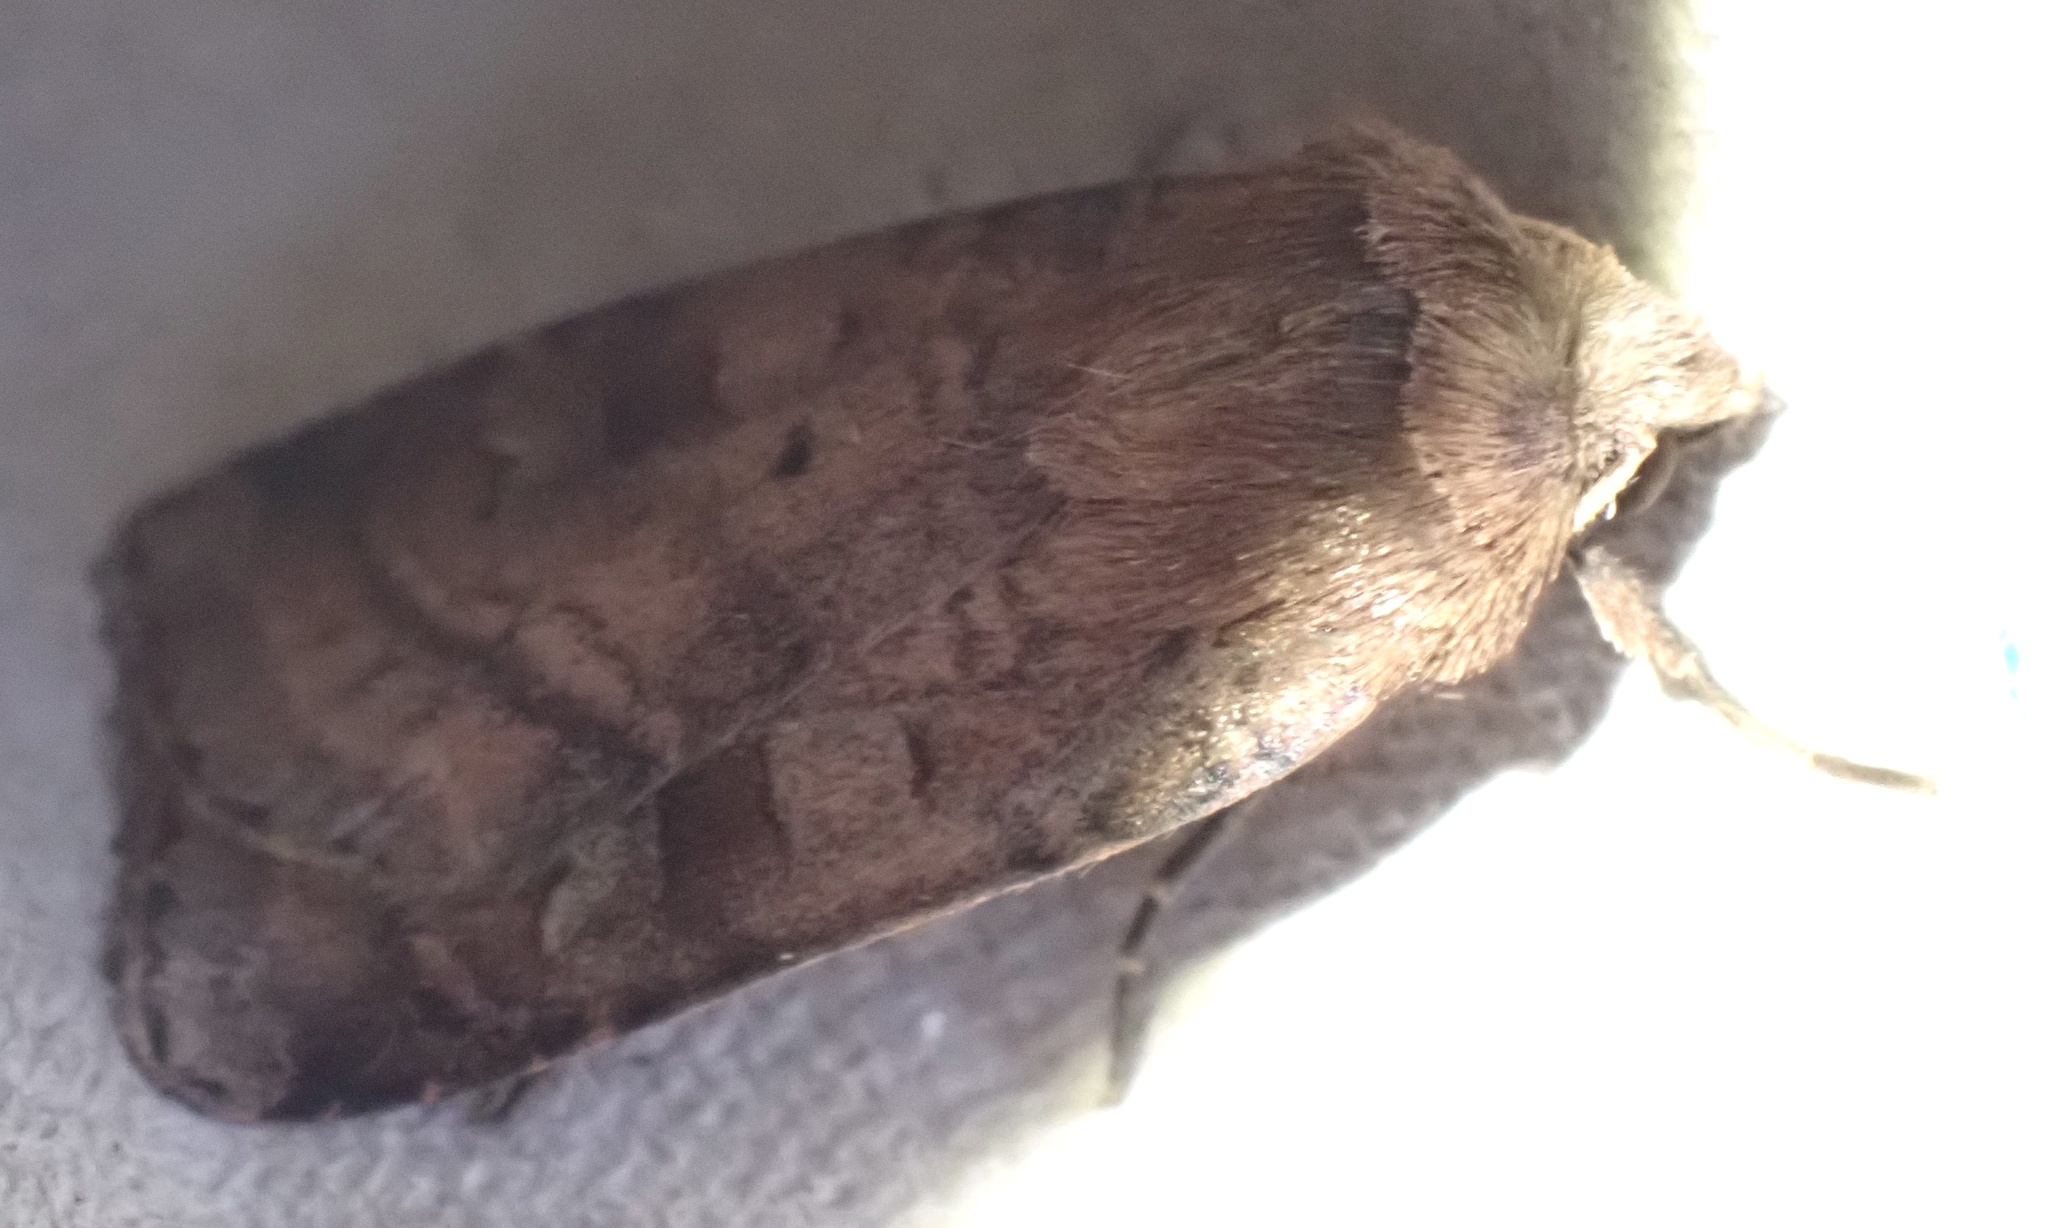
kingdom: Animalia
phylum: Arthropoda
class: Insecta
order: Lepidoptera
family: Noctuidae
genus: Diarsia
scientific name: Diarsia rubi
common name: Small square-spot
